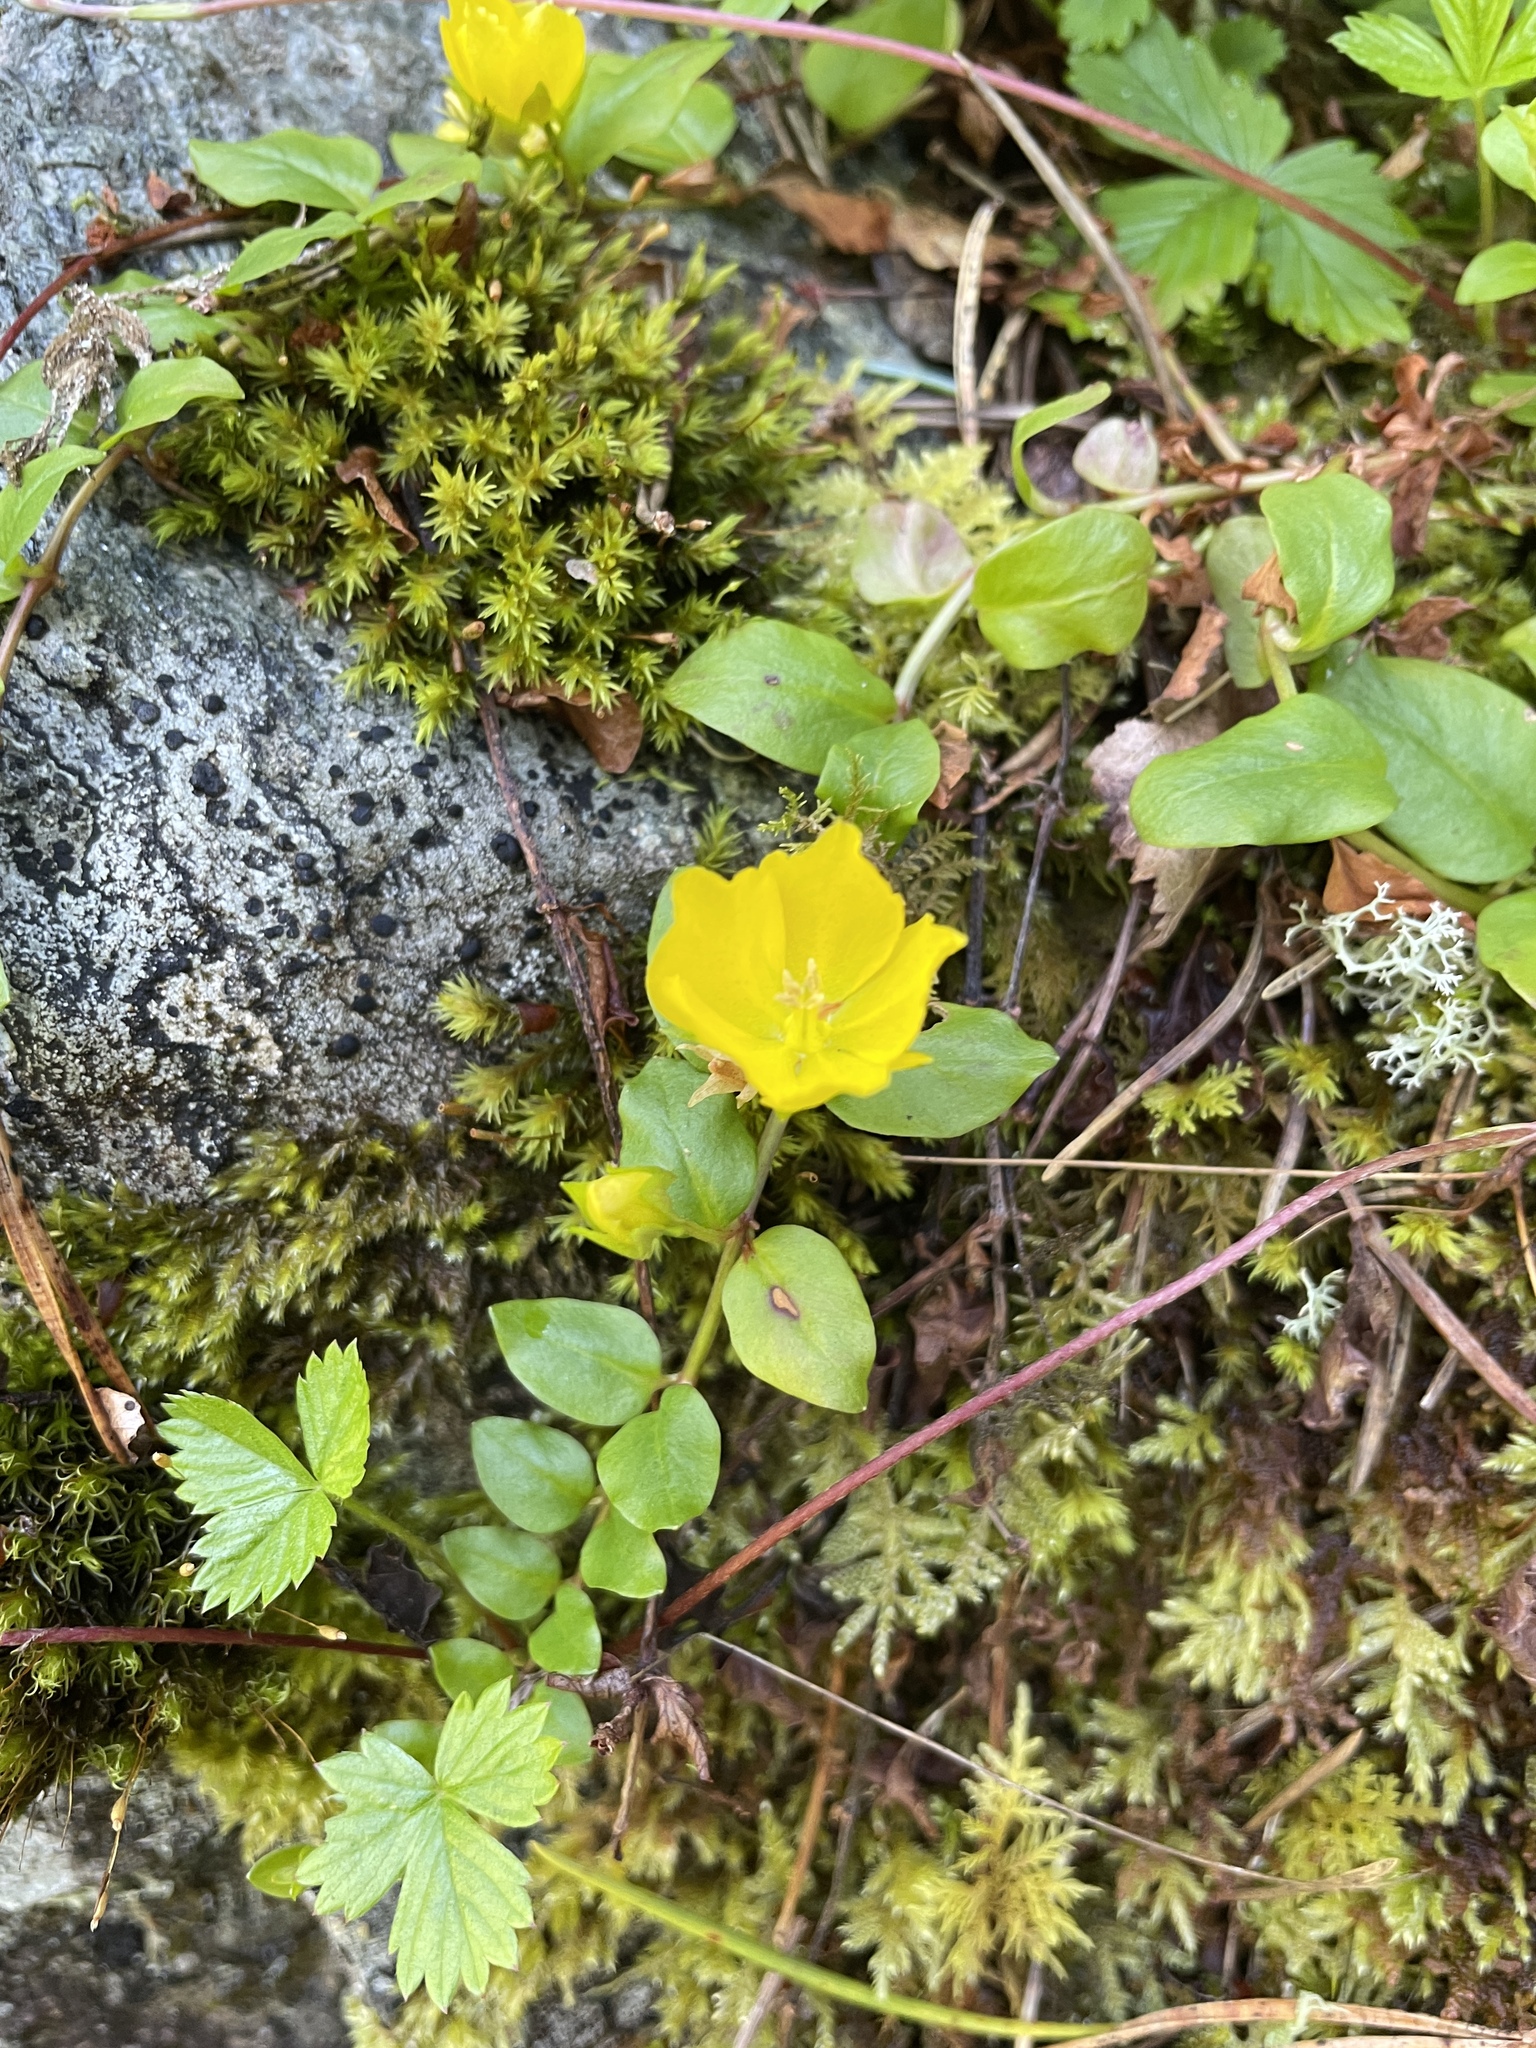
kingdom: Plantae
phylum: Tracheophyta
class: Magnoliopsida
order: Ericales
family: Primulaceae
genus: Lysimachia
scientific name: Lysimachia nummularia
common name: Moneywort
